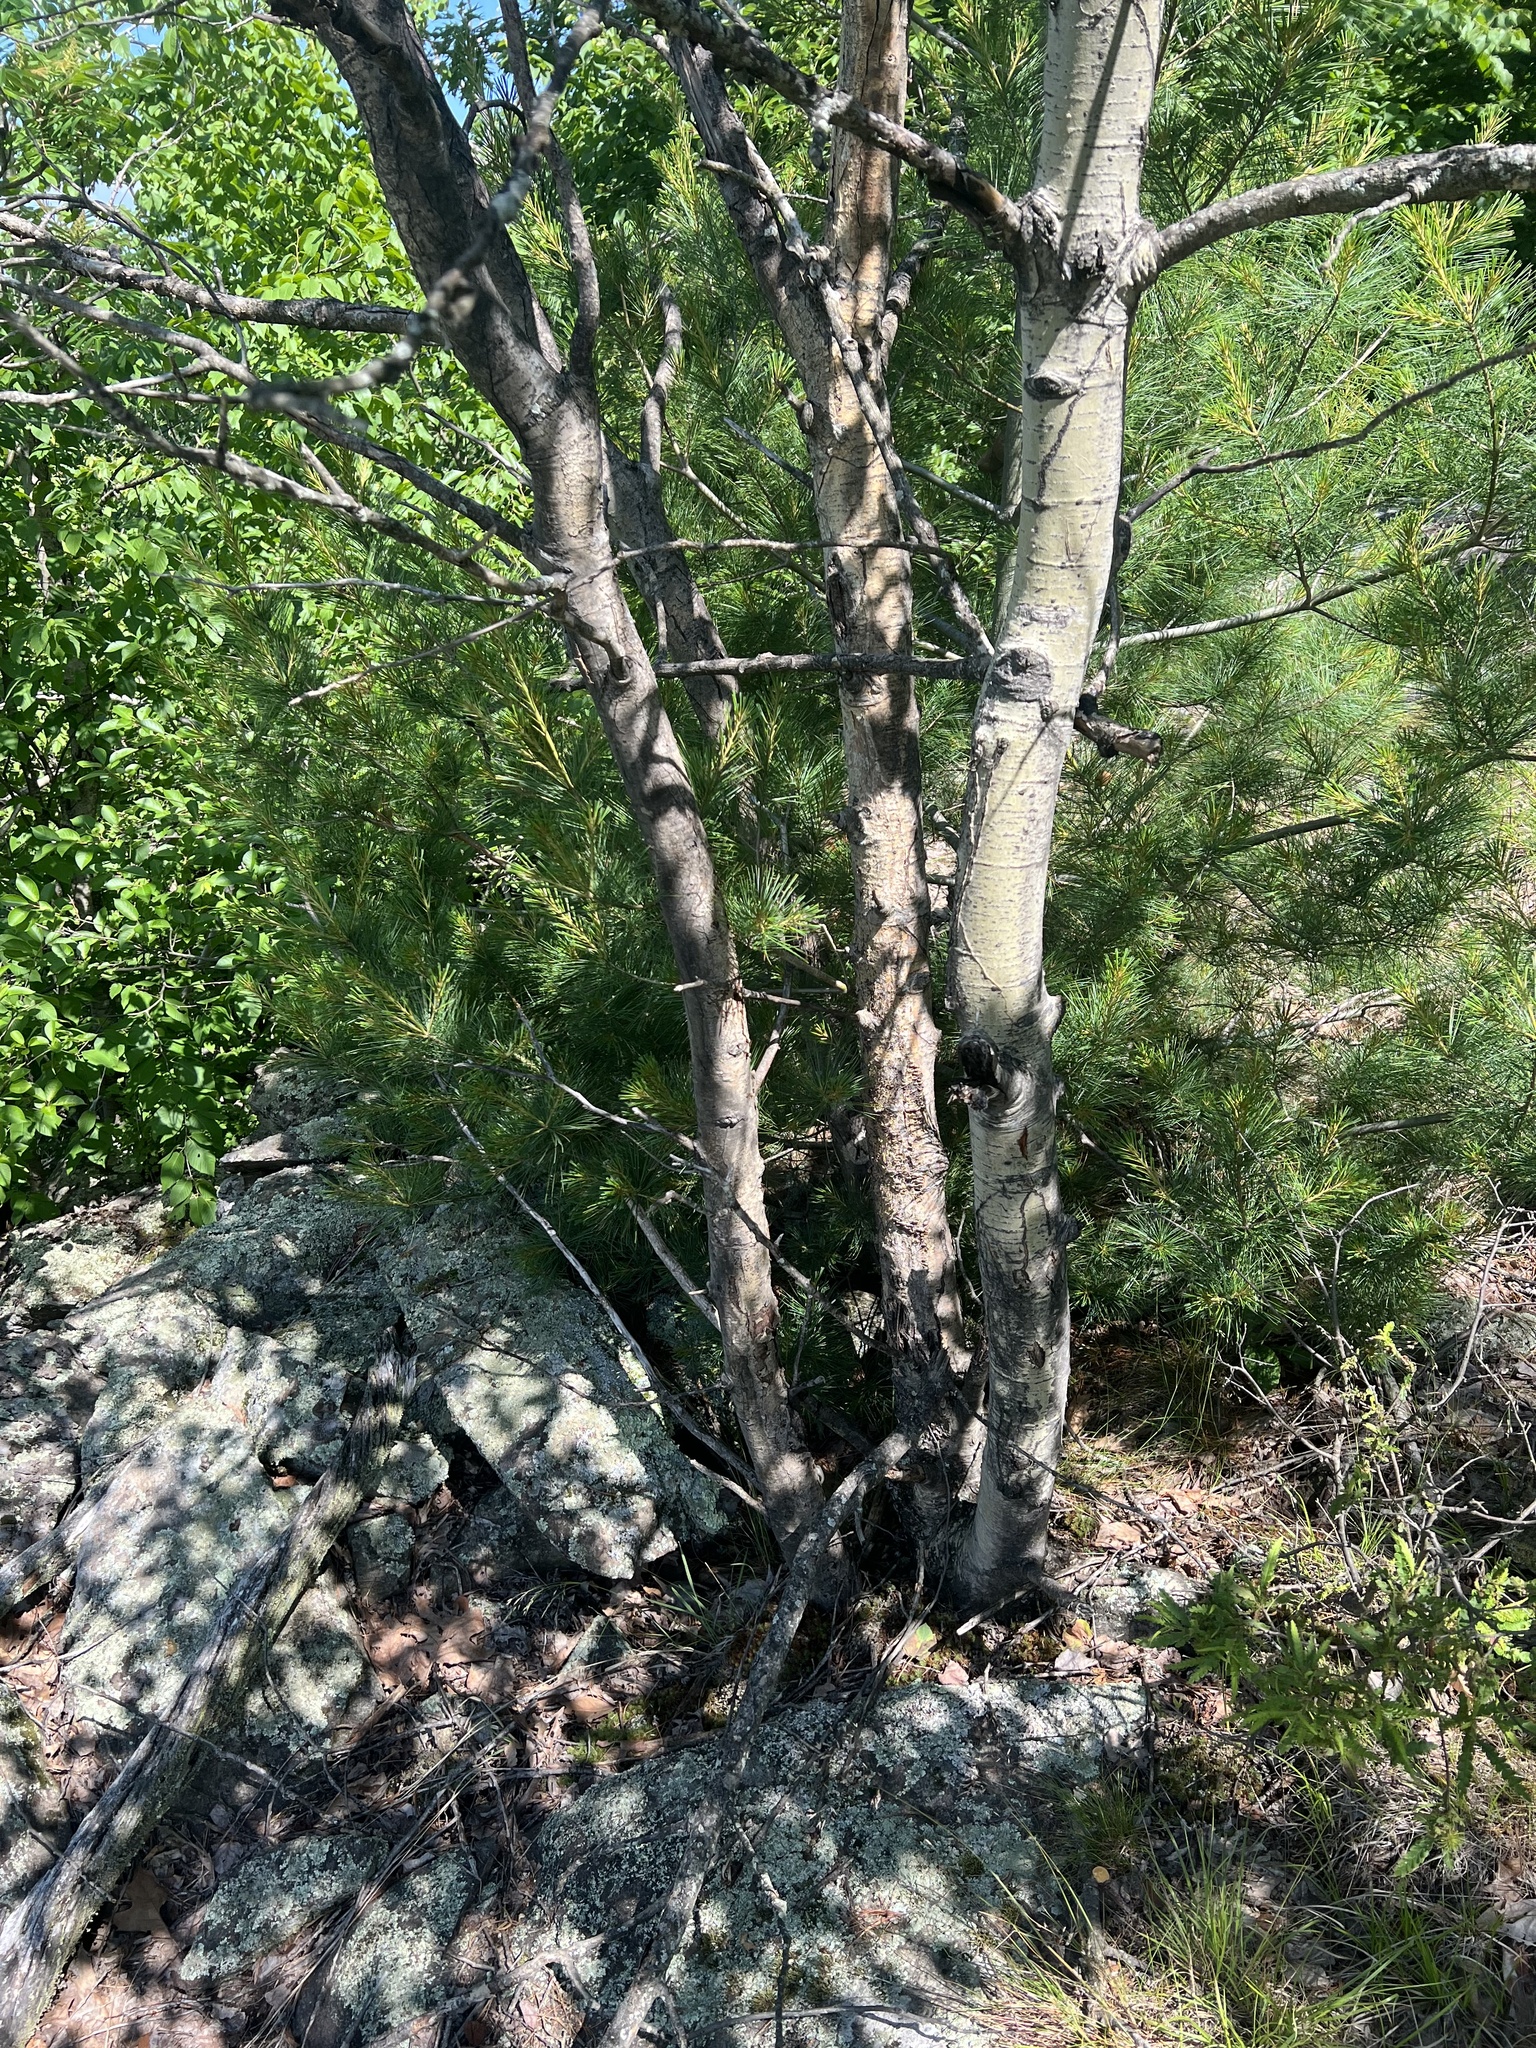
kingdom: Plantae
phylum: Tracheophyta
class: Magnoliopsida
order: Malpighiales
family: Salicaceae
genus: Populus
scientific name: Populus tremuloides
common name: Quaking aspen
